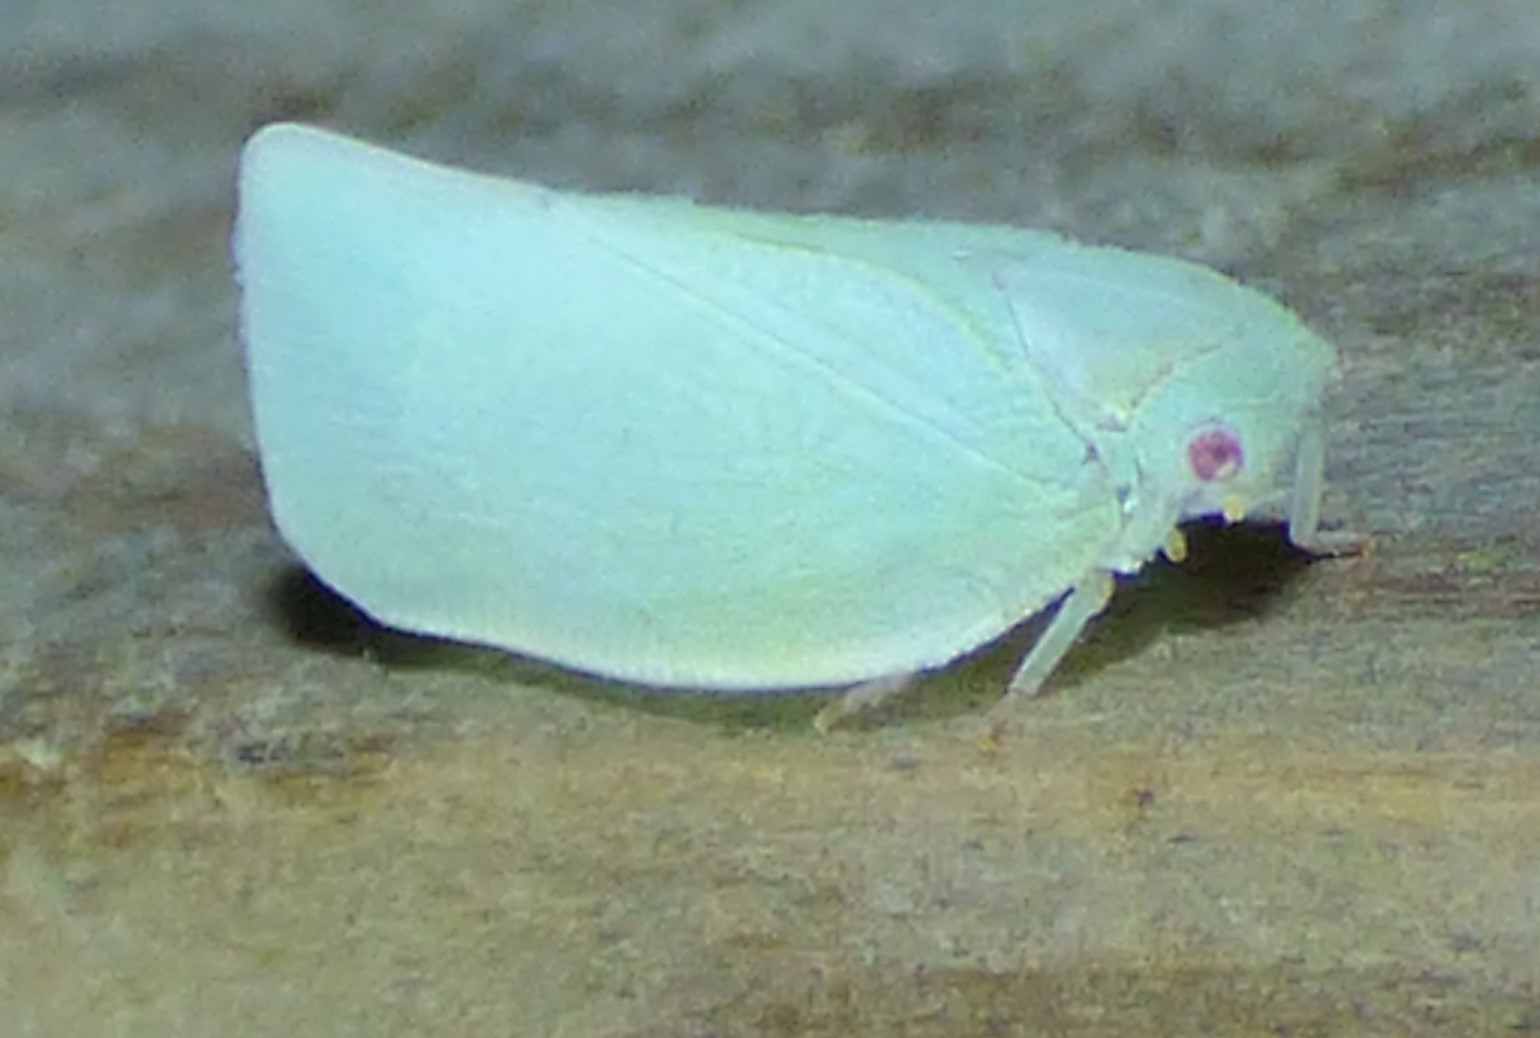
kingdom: Animalia
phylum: Arthropoda
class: Insecta
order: Hemiptera
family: Flatidae
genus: Flatormenis
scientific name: Flatormenis proxima
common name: Northern flatid planthopper
